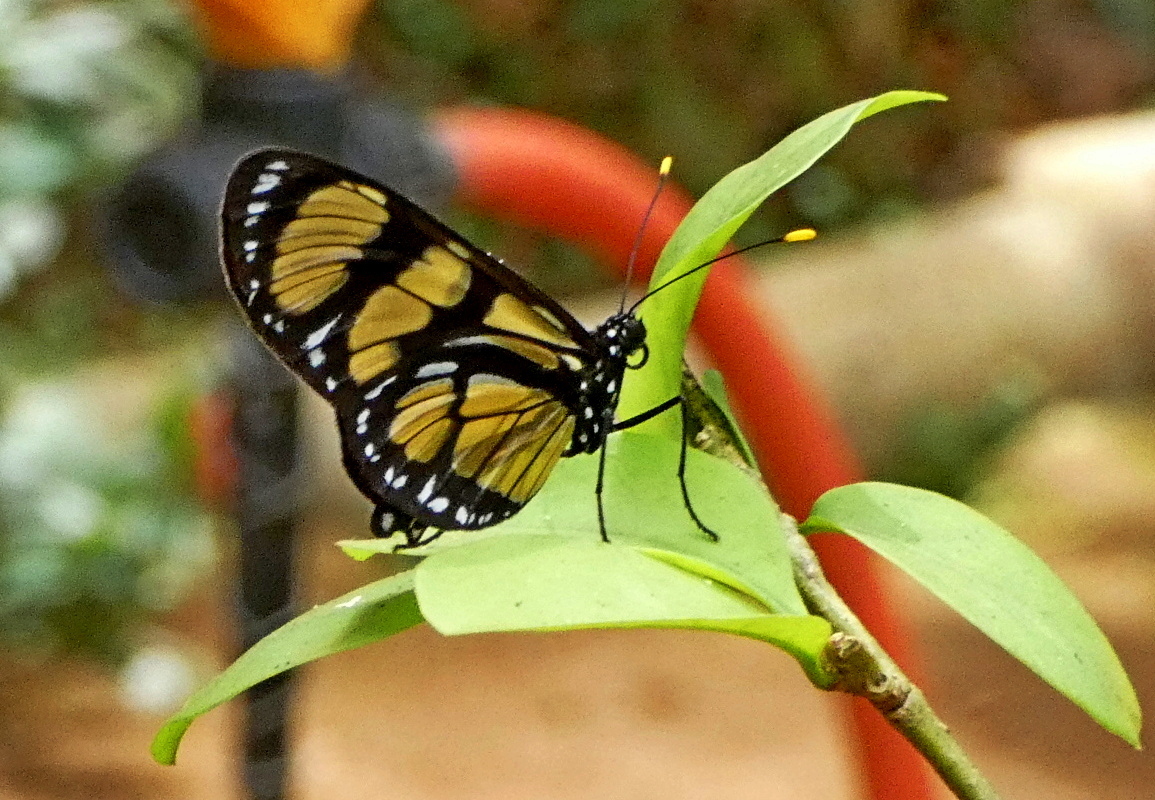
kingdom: Animalia
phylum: Arthropoda
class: Insecta
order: Lepidoptera
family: Nymphalidae
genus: Methona
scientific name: Methona themisto
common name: Themisto amberwing
